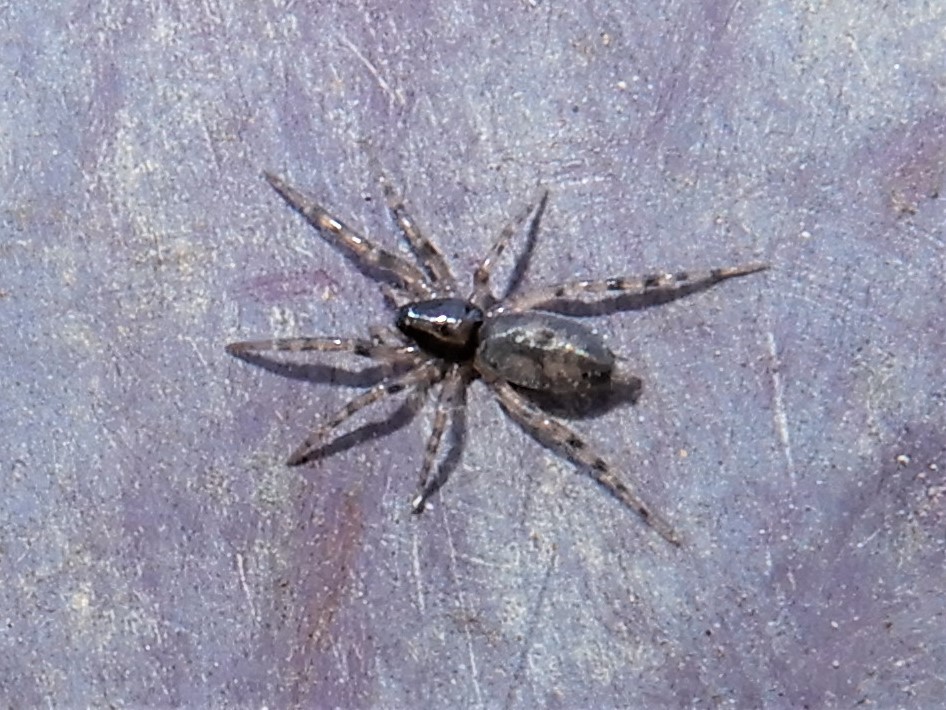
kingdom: Animalia
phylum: Arthropoda
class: Arachnida
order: Araneae
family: Gnaphosidae
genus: Intruda
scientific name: Intruda signata
